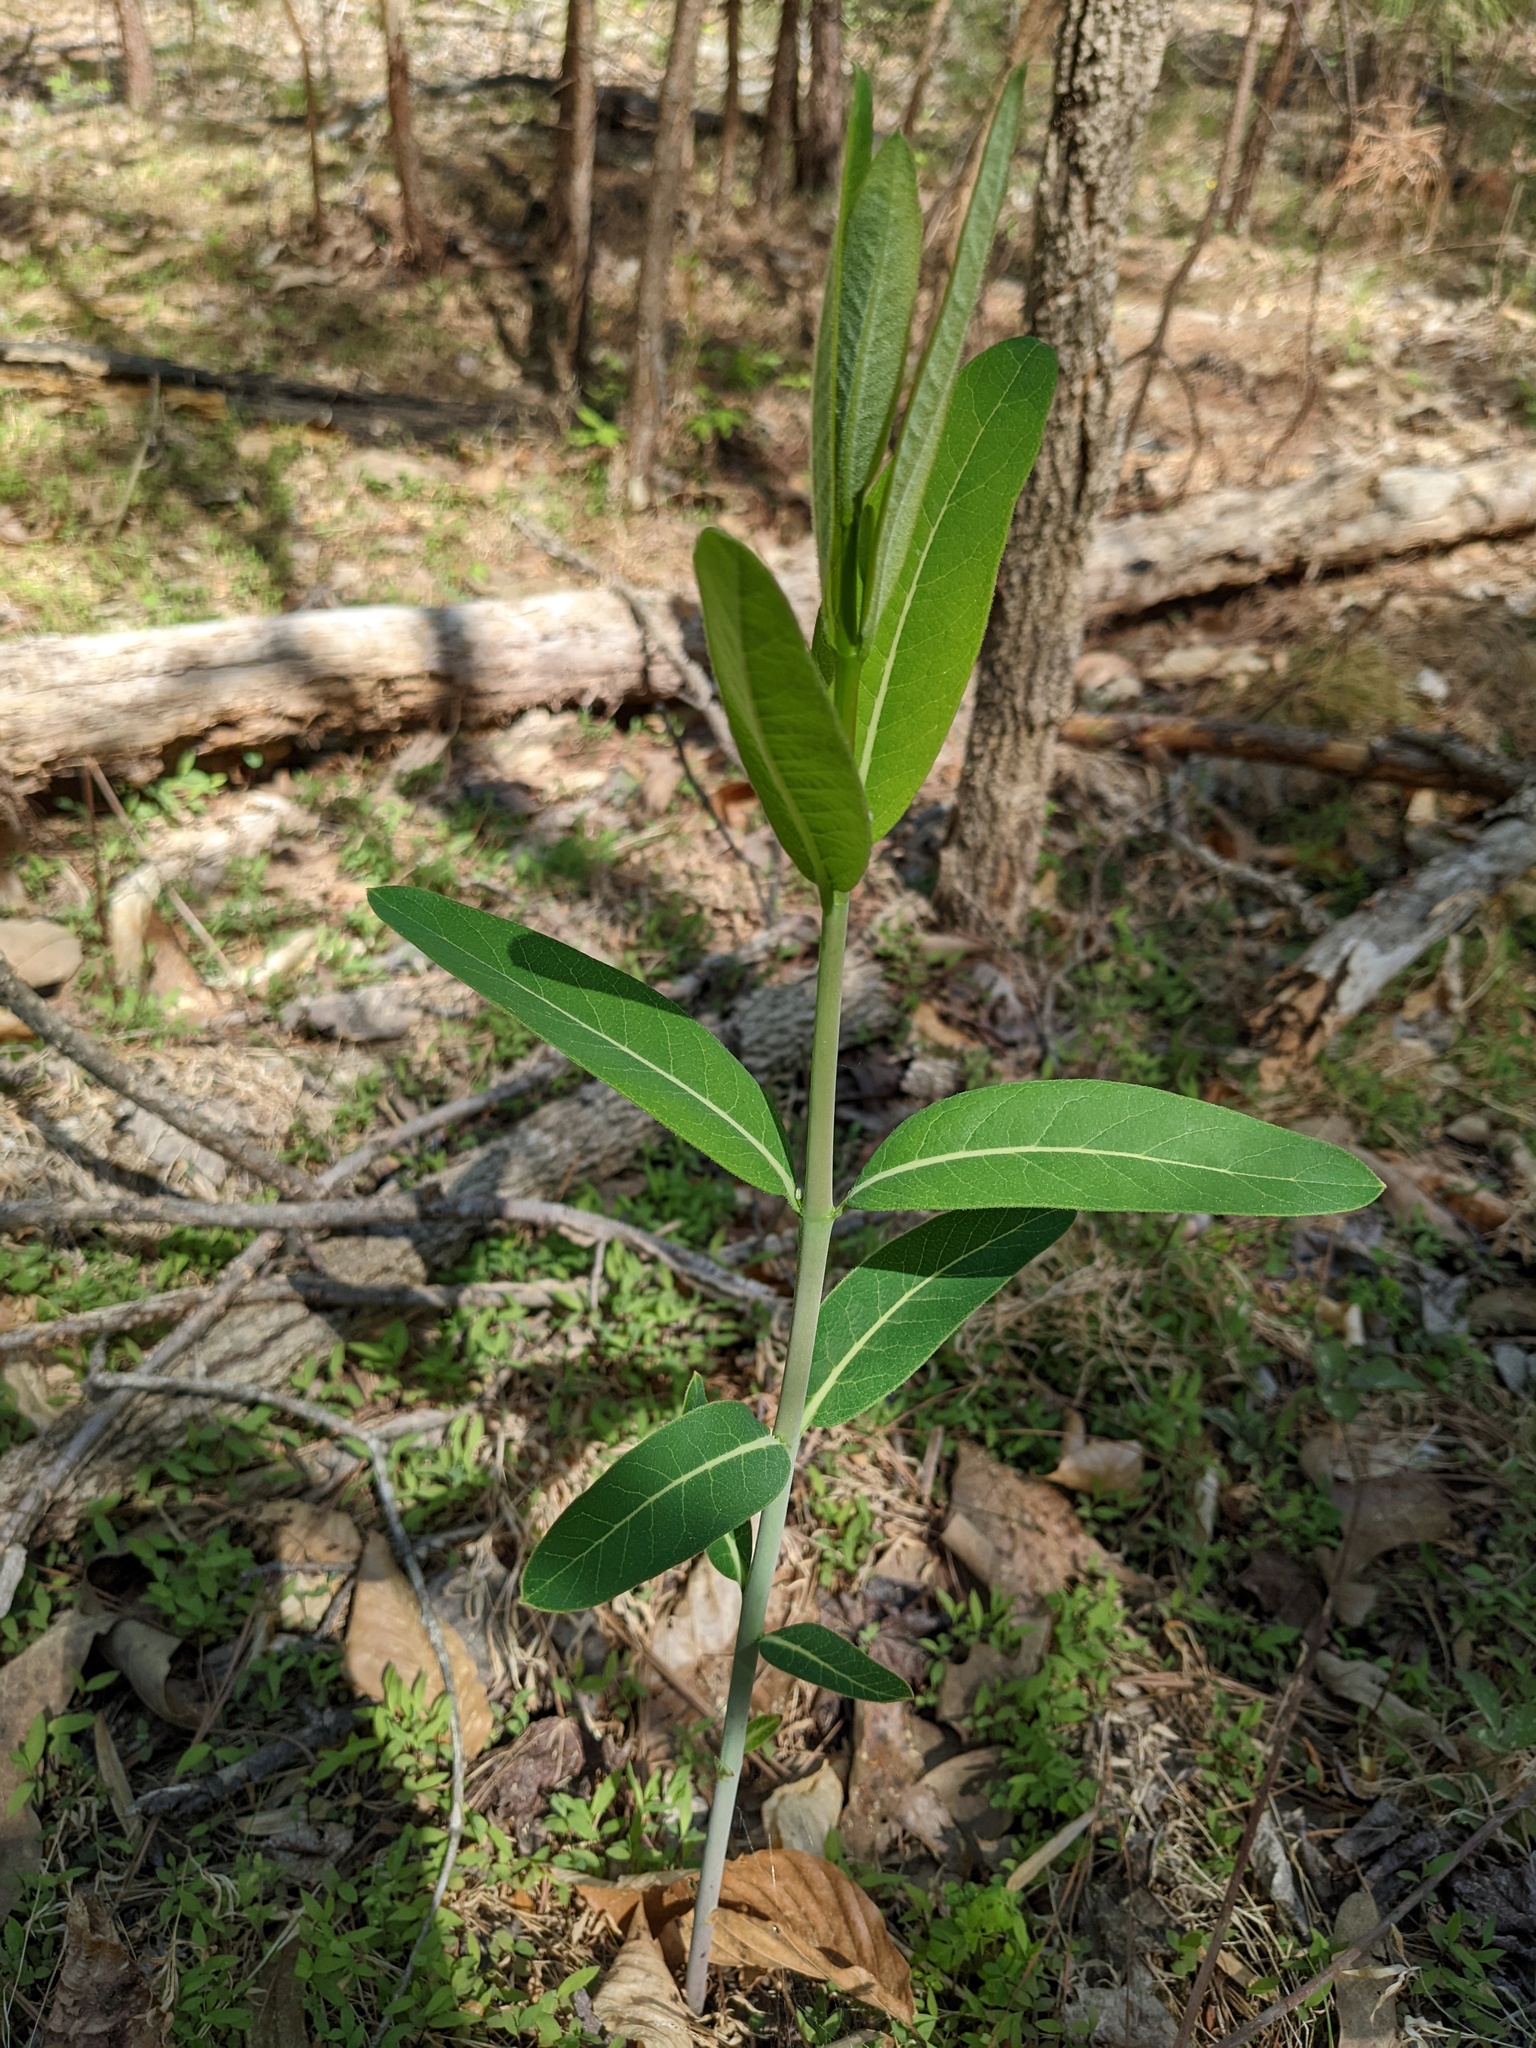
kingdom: Plantae
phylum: Tracheophyta
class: Magnoliopsida
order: Gentianales
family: Apocynaceae
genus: Apocynum
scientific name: Apocynum cannabinum
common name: Hemp dogbane
